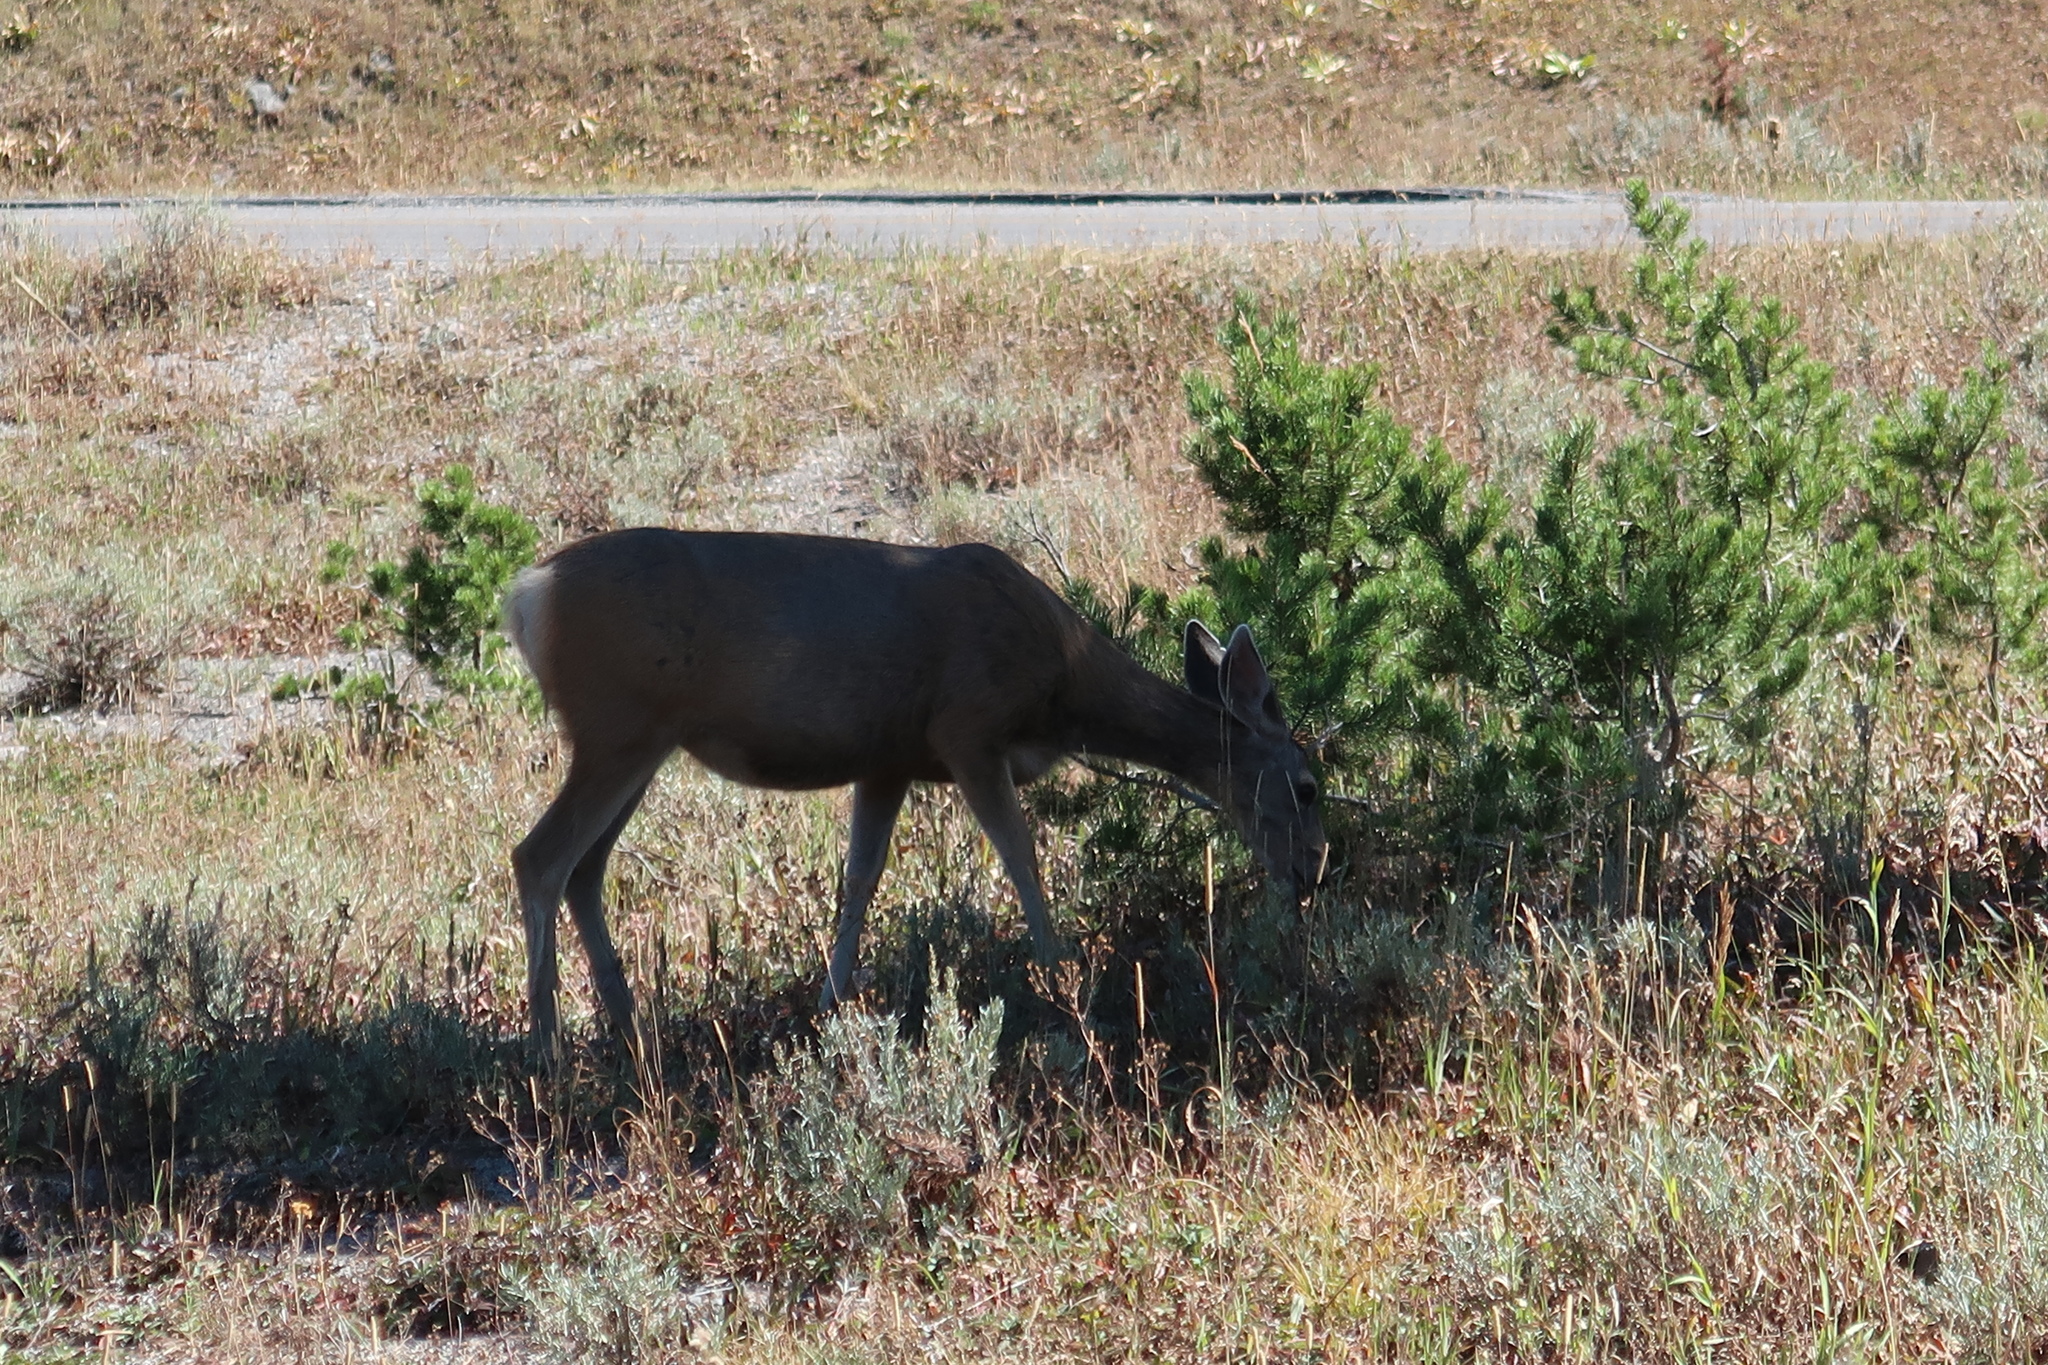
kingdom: Animalia
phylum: Chordata
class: Mammalia
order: Artiodactyla
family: Cervidae
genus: Odocoileus
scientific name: Odocoileus hemionus
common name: Mule deer
